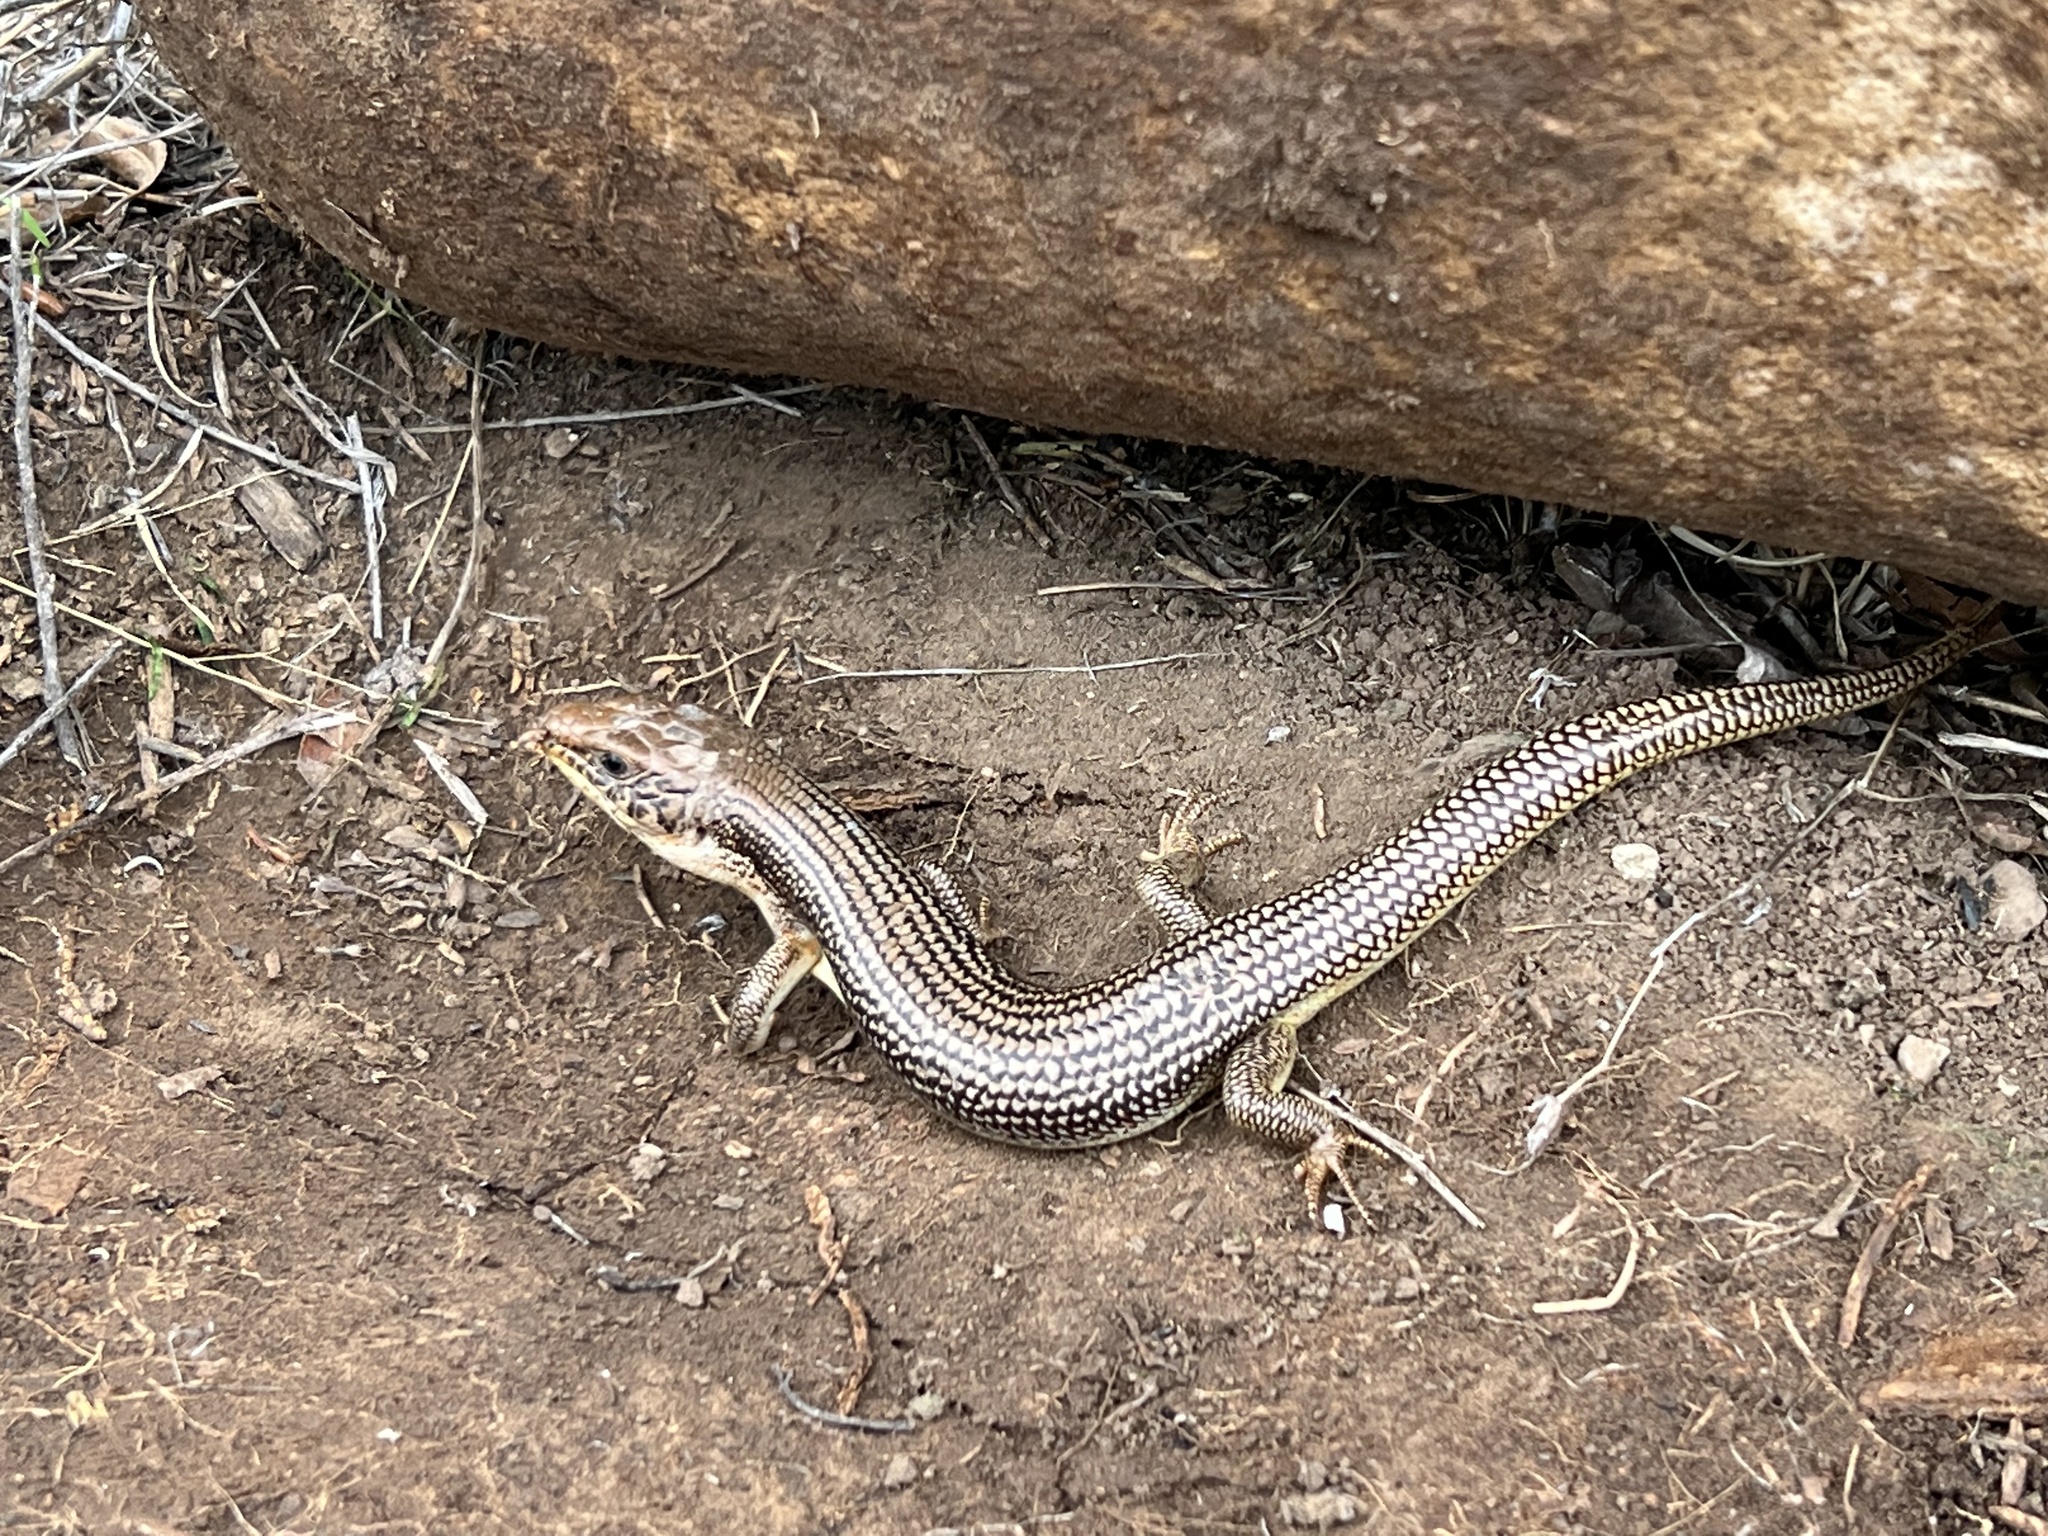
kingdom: Animalia
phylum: Chordata
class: Squamata
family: Scincidae
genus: Plestiodon
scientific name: Plestiodon obsoletus
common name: Great plains skink
